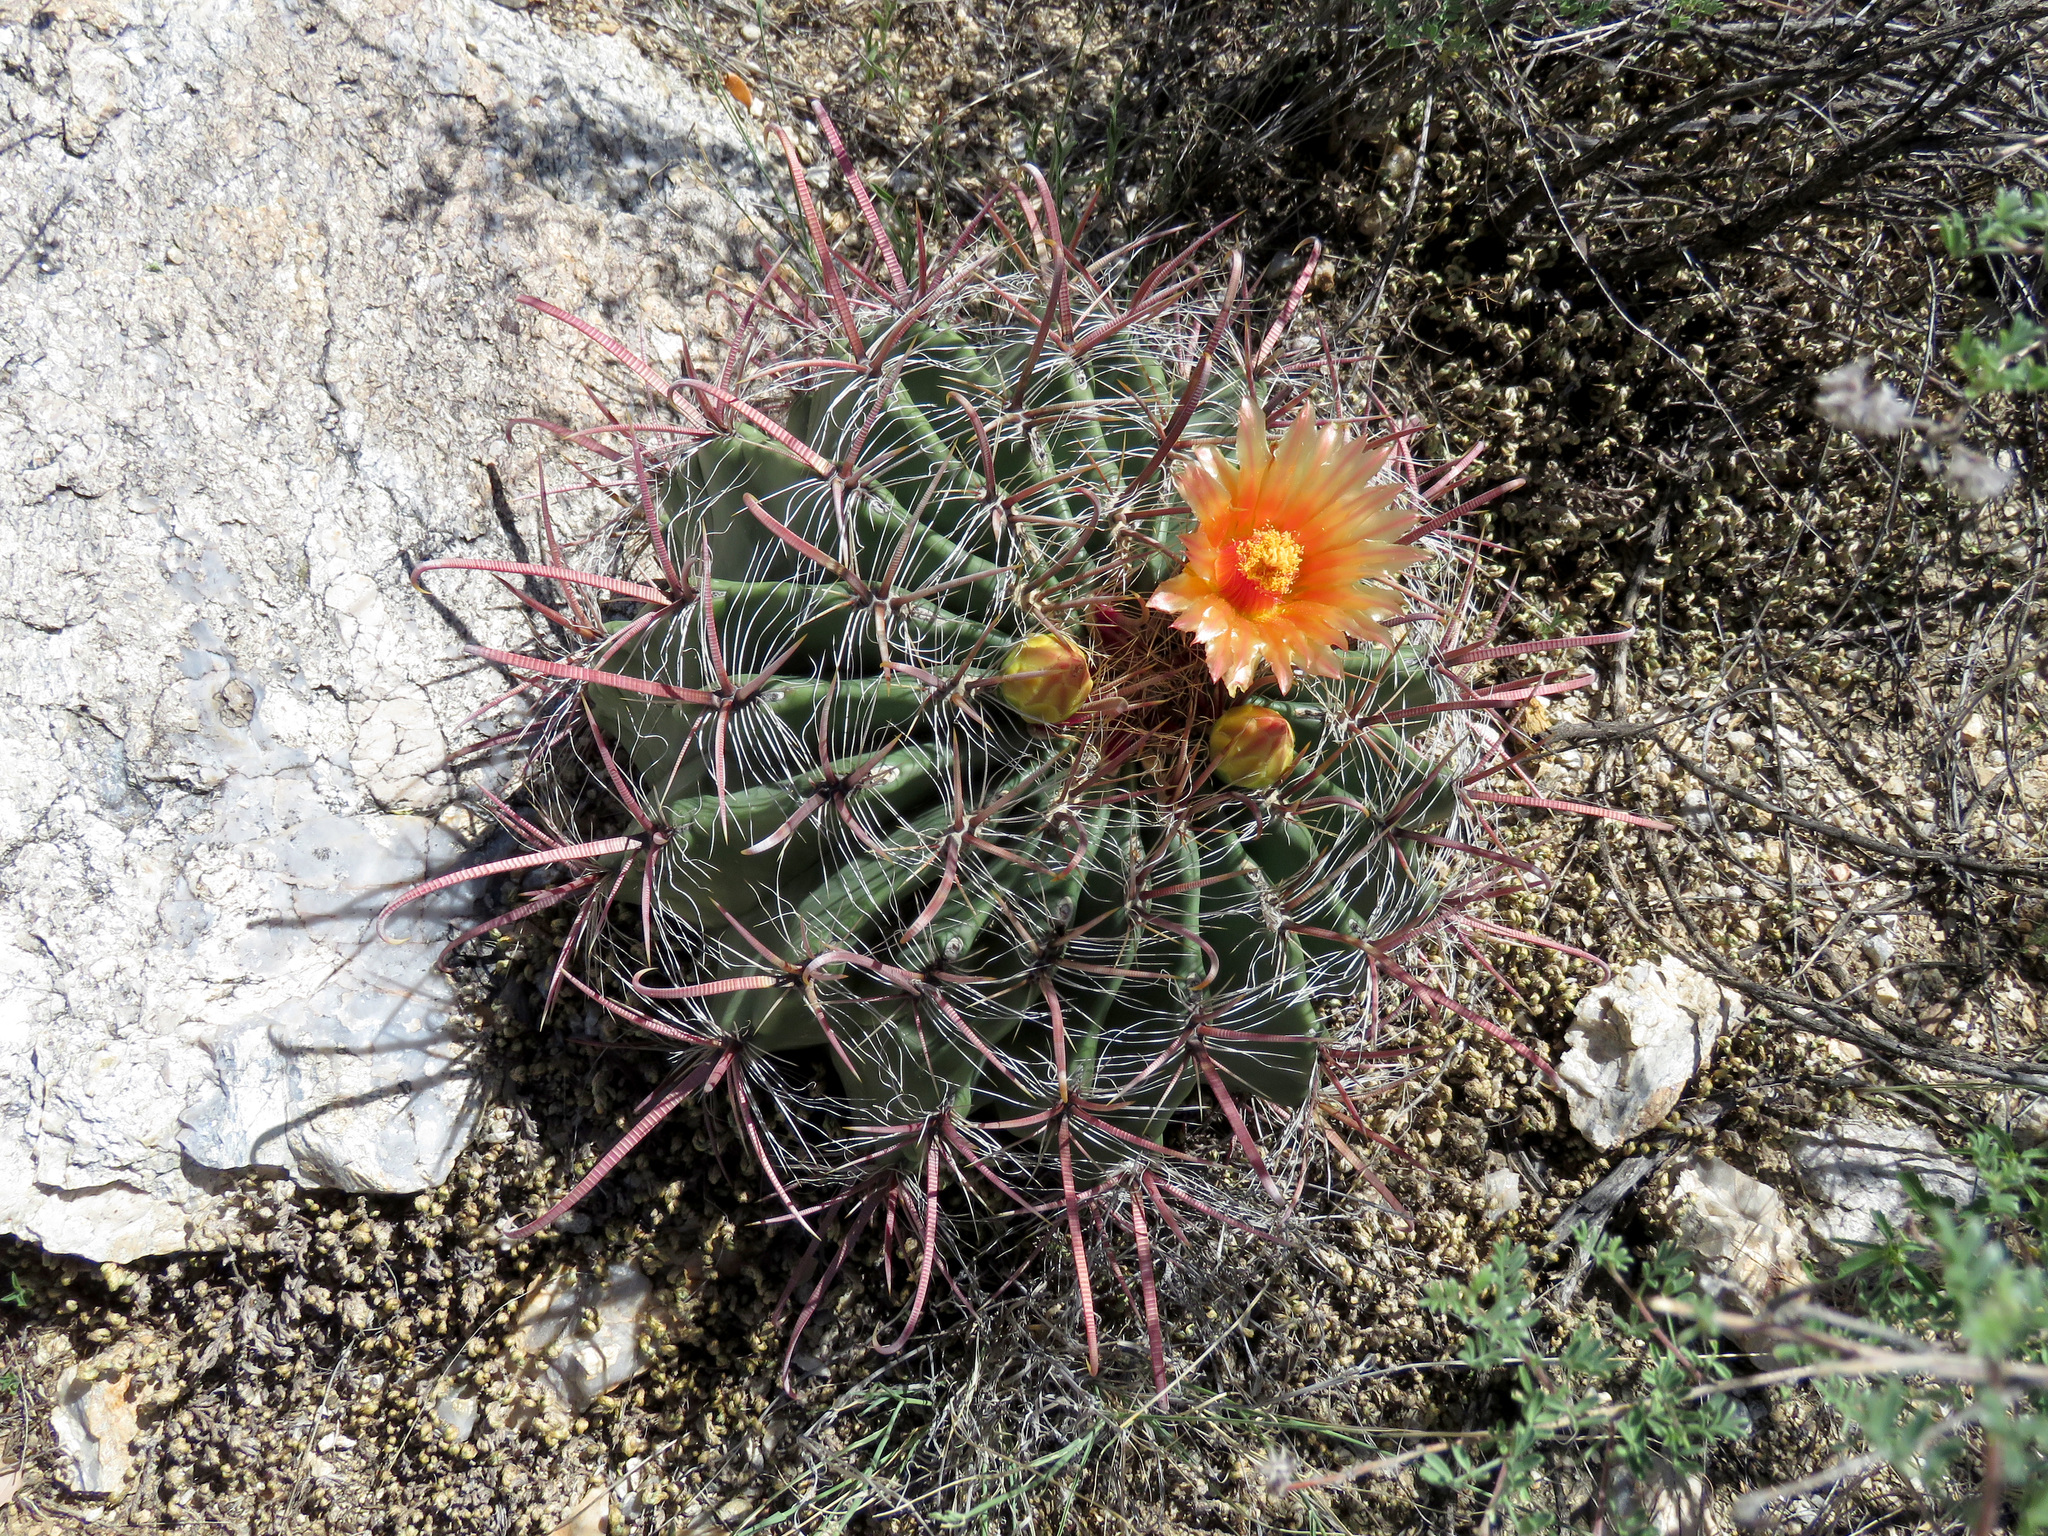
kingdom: Plantae
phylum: Tracheophyta
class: Magnoliopsida
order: Caryophyllales
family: Cactaceae
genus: Ferocactus
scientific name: Ferocactus wislizeni
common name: Candy barrel cactus
